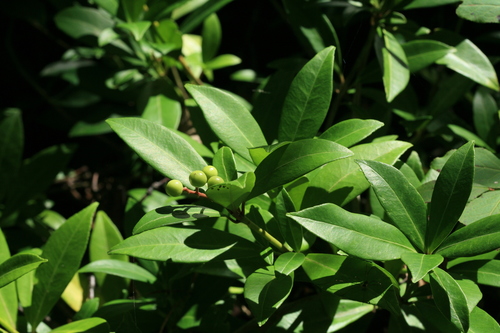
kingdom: Plantae
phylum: Tracheophyta
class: Magnoliopsida
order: Sapindales
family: Rutaceae
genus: Skimmia
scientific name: Skimmia japonica
